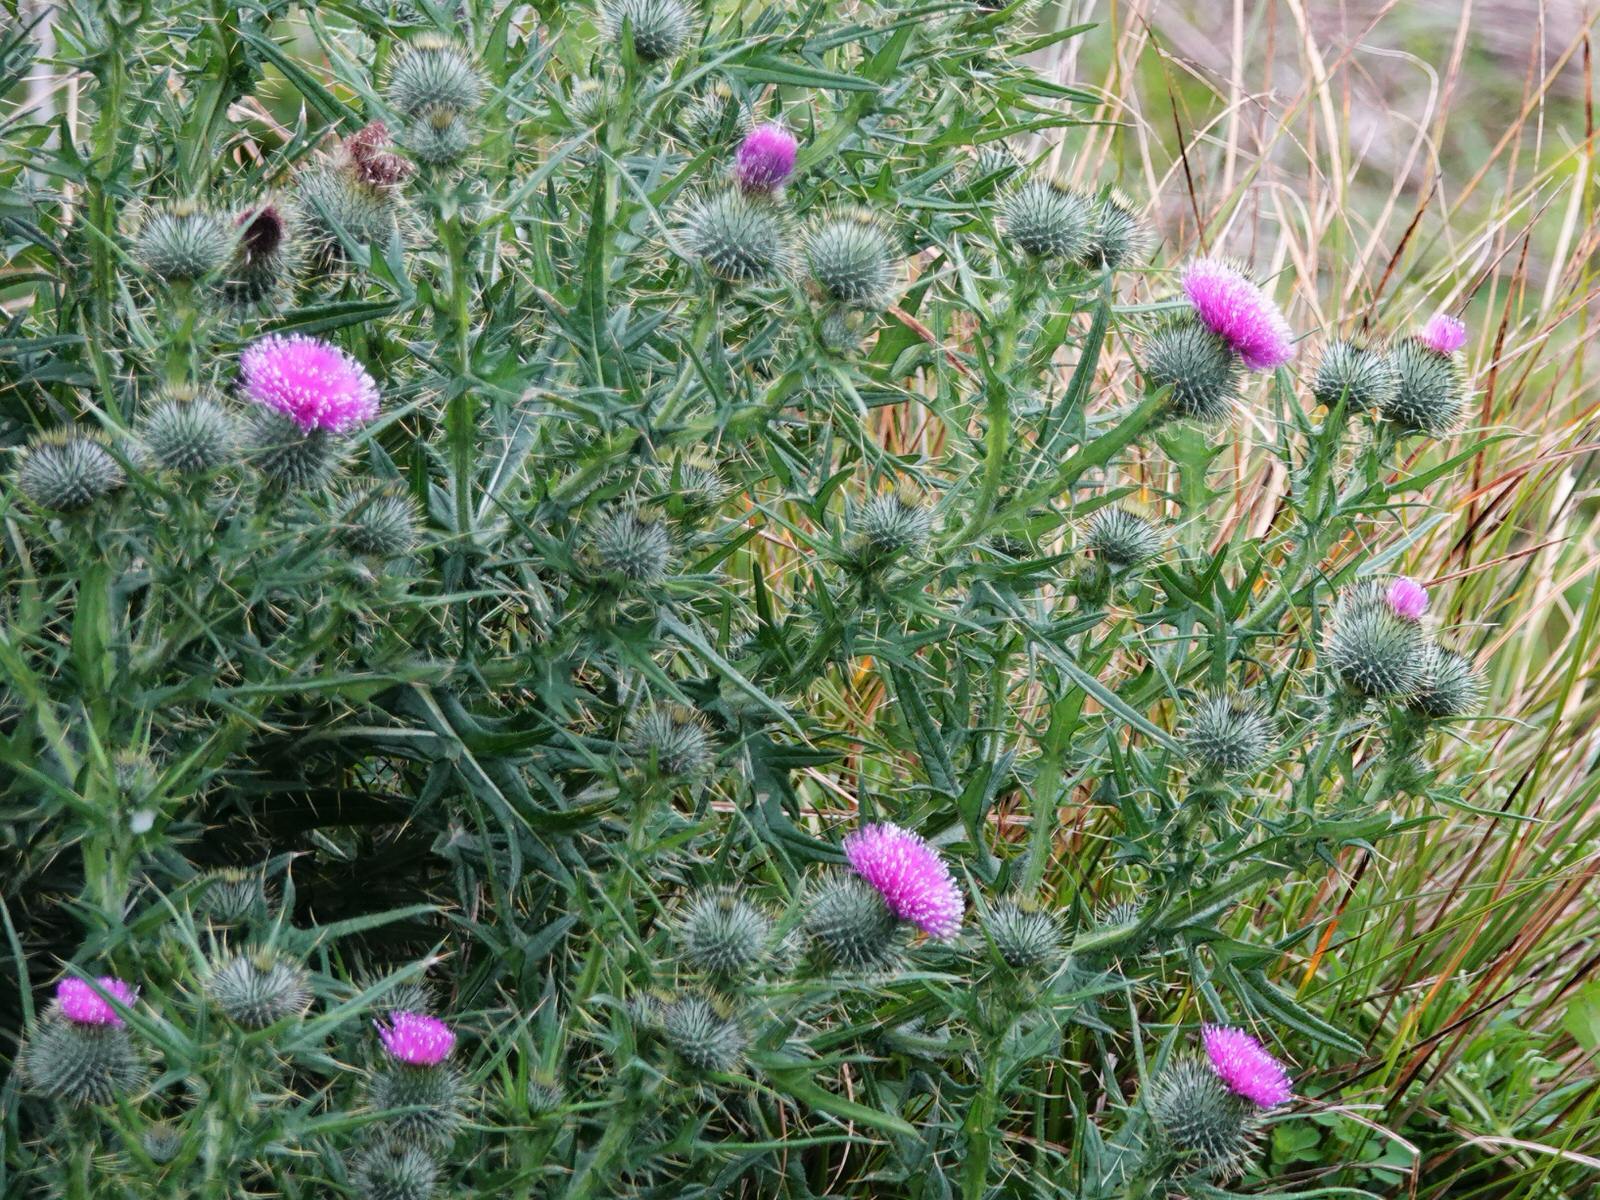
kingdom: Plantae
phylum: Tracheophyta
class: Magnoliopsida
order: Asterales
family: Asteraceae
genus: Cirsium
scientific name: Cirsium vulgare
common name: Bull thistle
